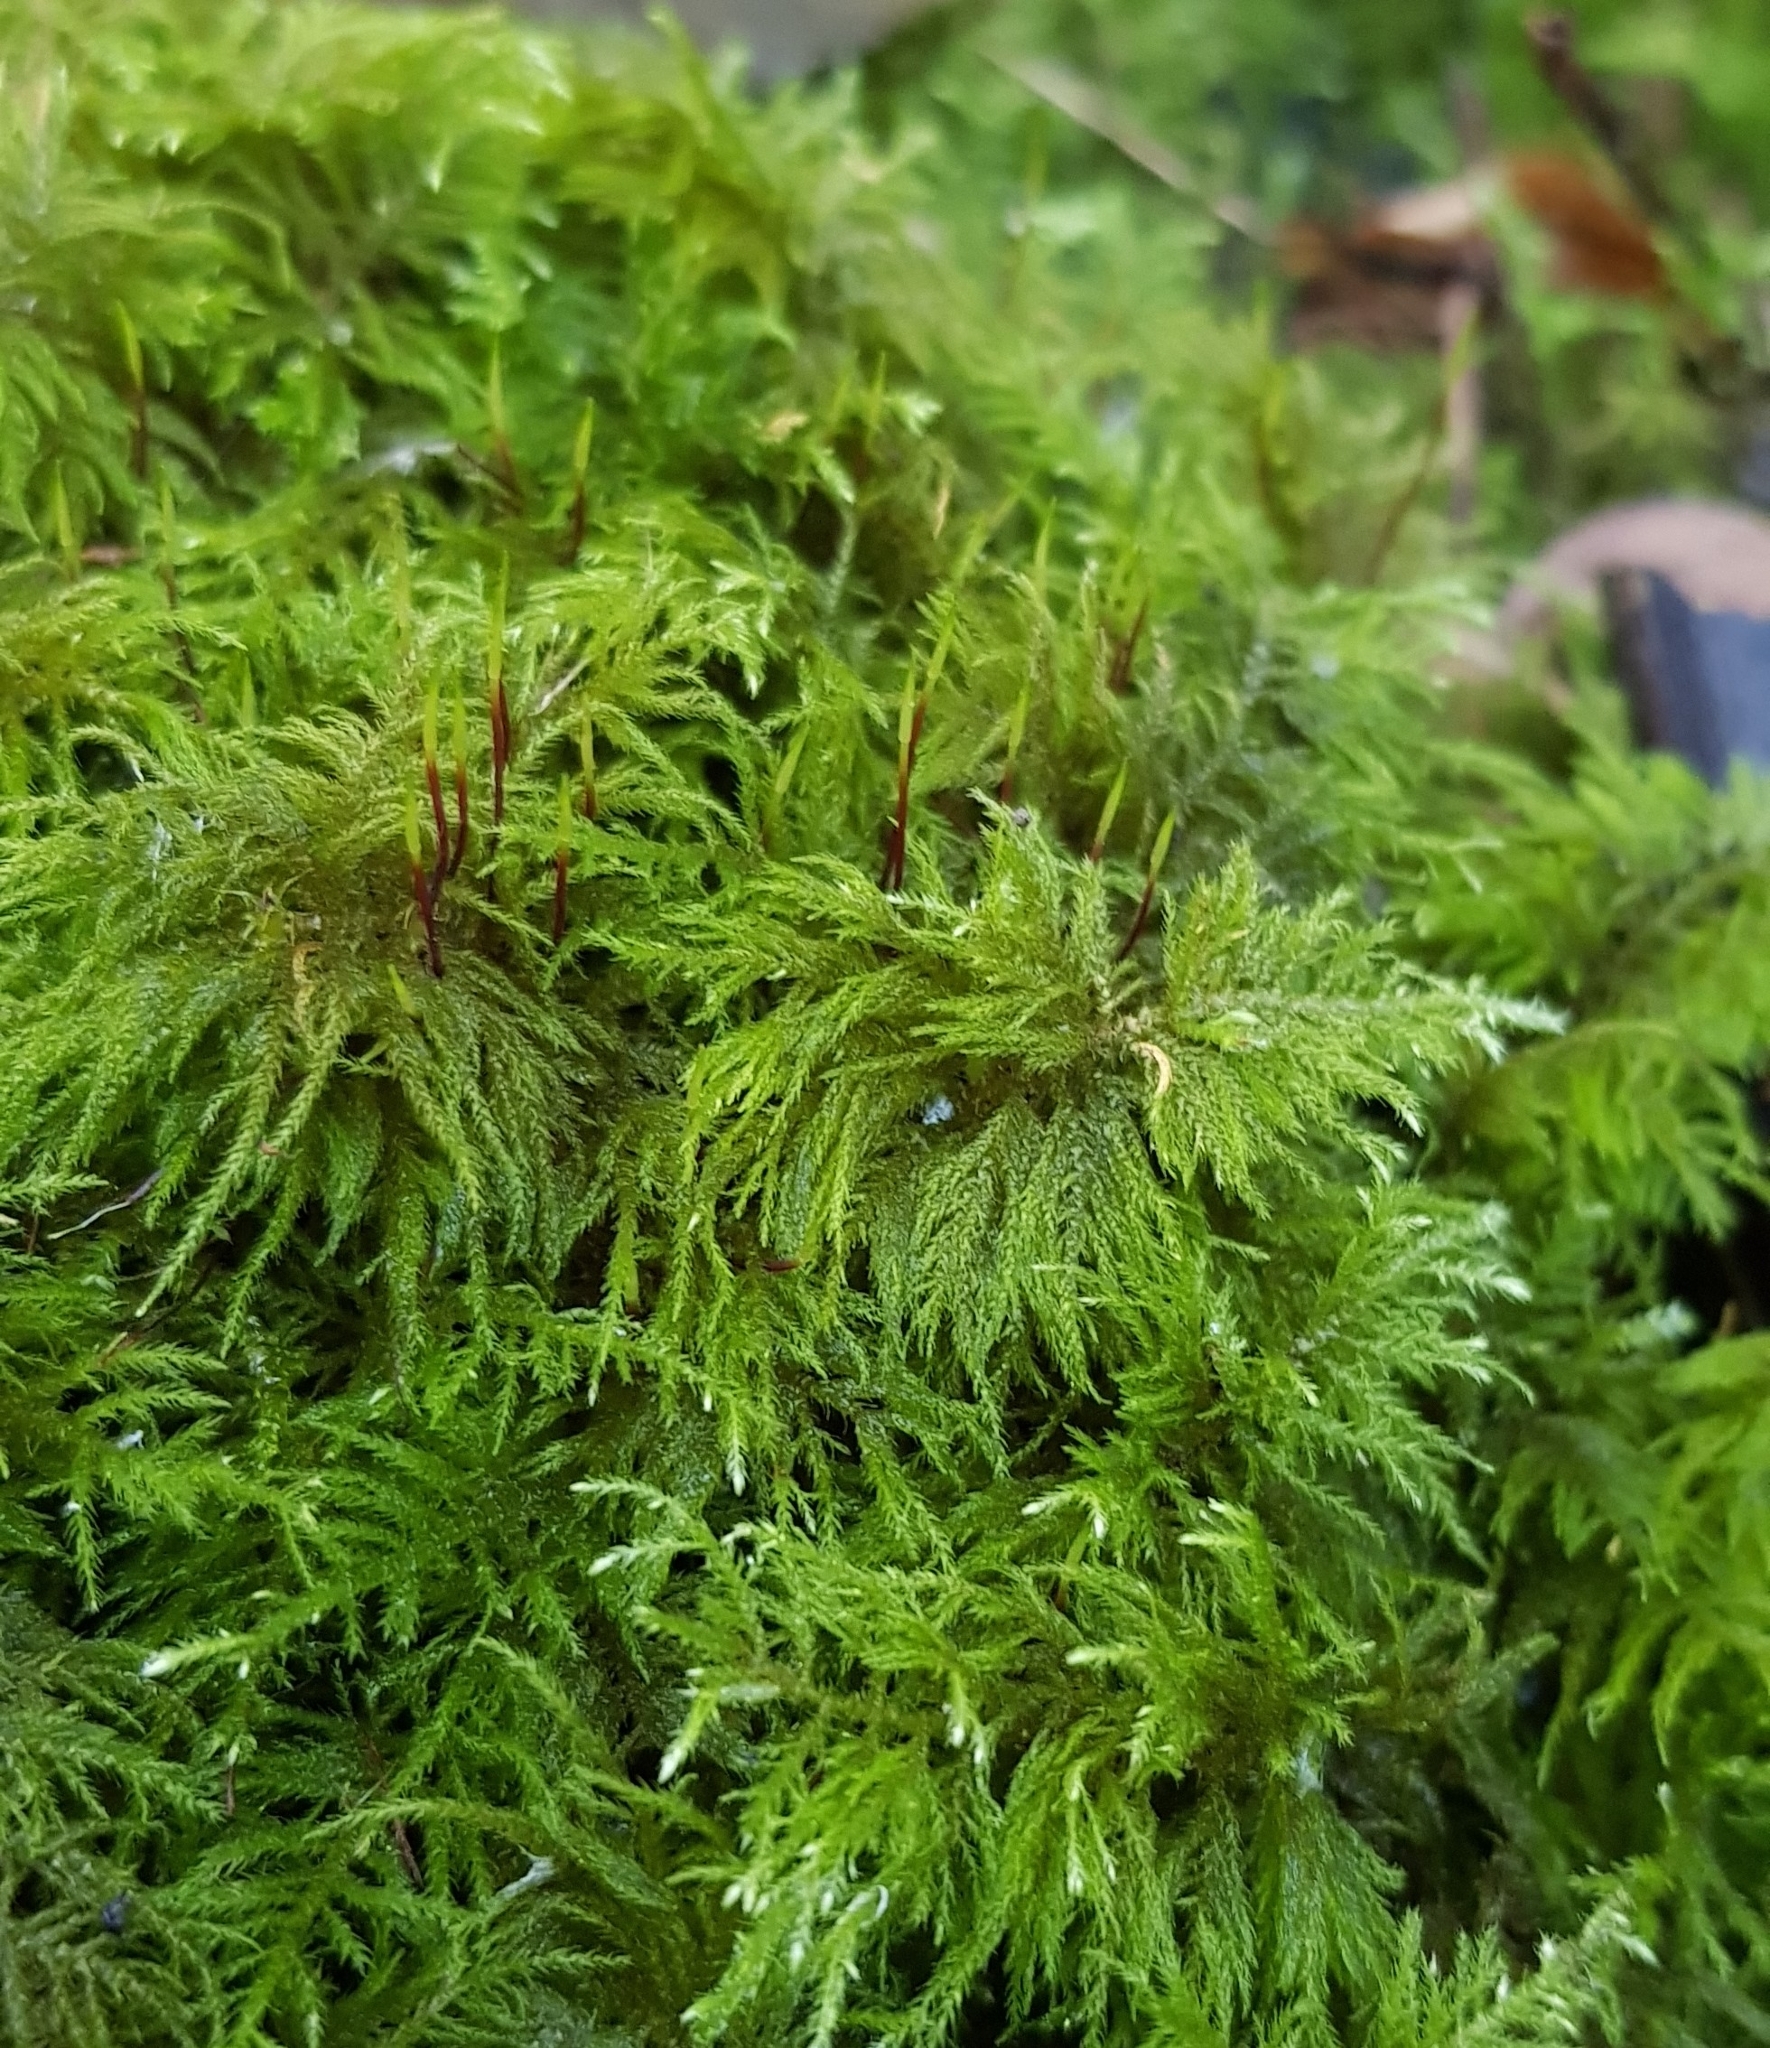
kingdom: Plantae
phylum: Bryophyta
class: Bryopsida
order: Hypnales
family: Brachytheciaceae
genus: Kindbergia
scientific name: Kindbergia praelonga
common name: Slender beaked moss
